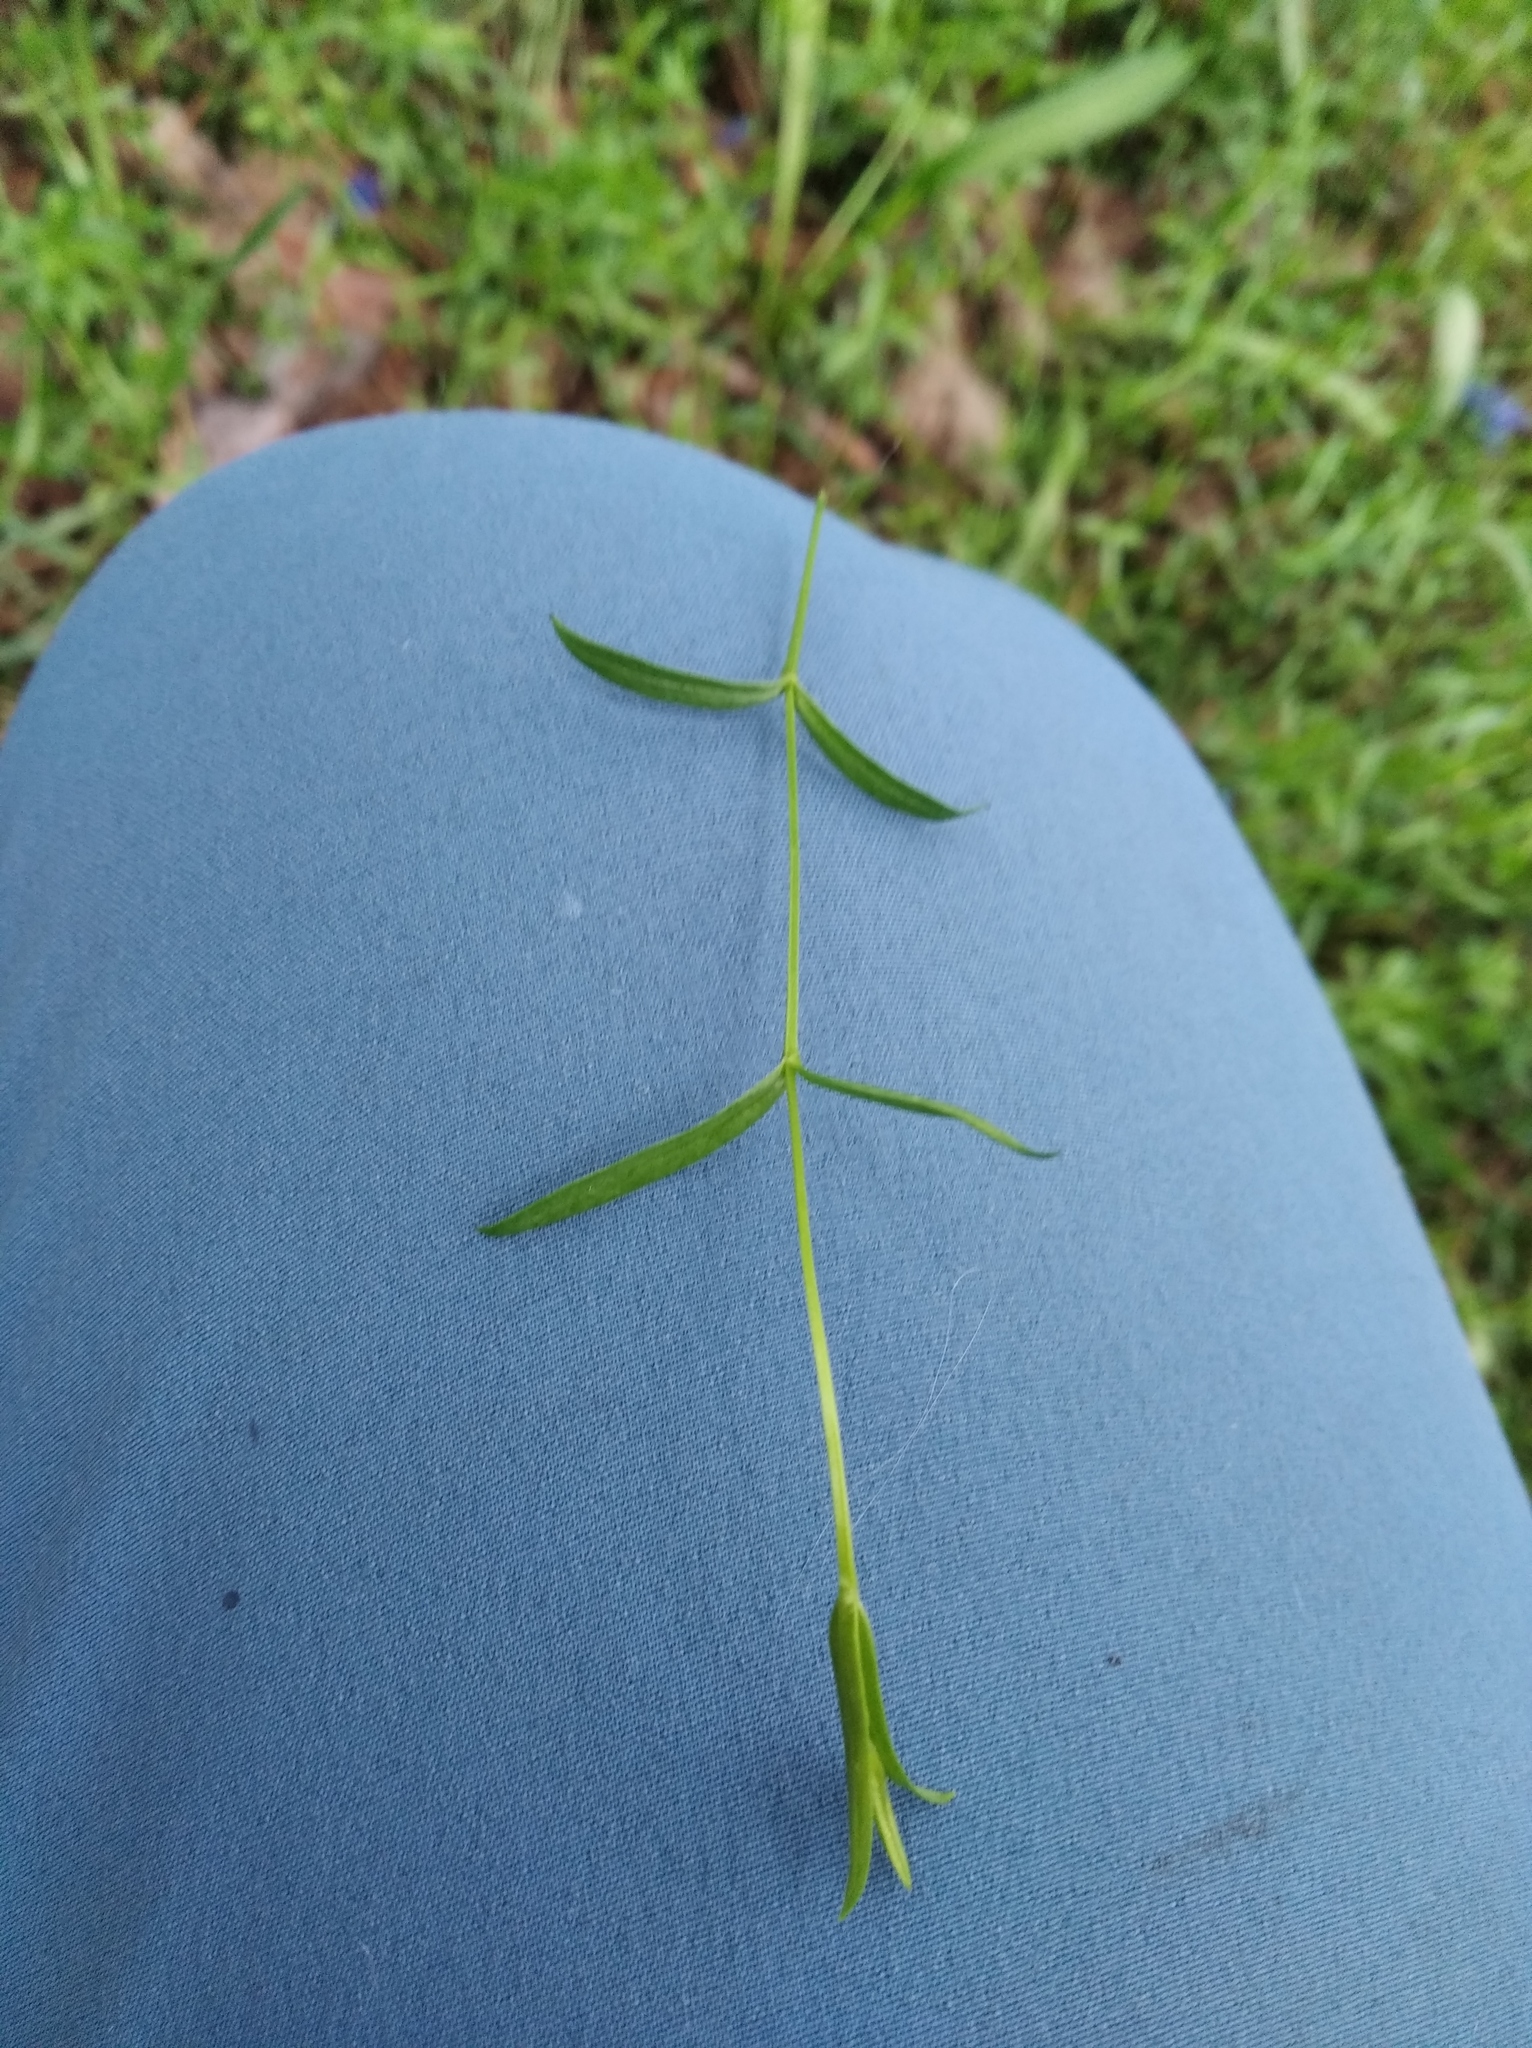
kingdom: Plantae
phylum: Tracheophyta
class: Magnoliopsida
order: Caryophyllales
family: Caryophyllaceae
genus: Stellaria
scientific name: Stellaria graminea
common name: Grass-like starwort
